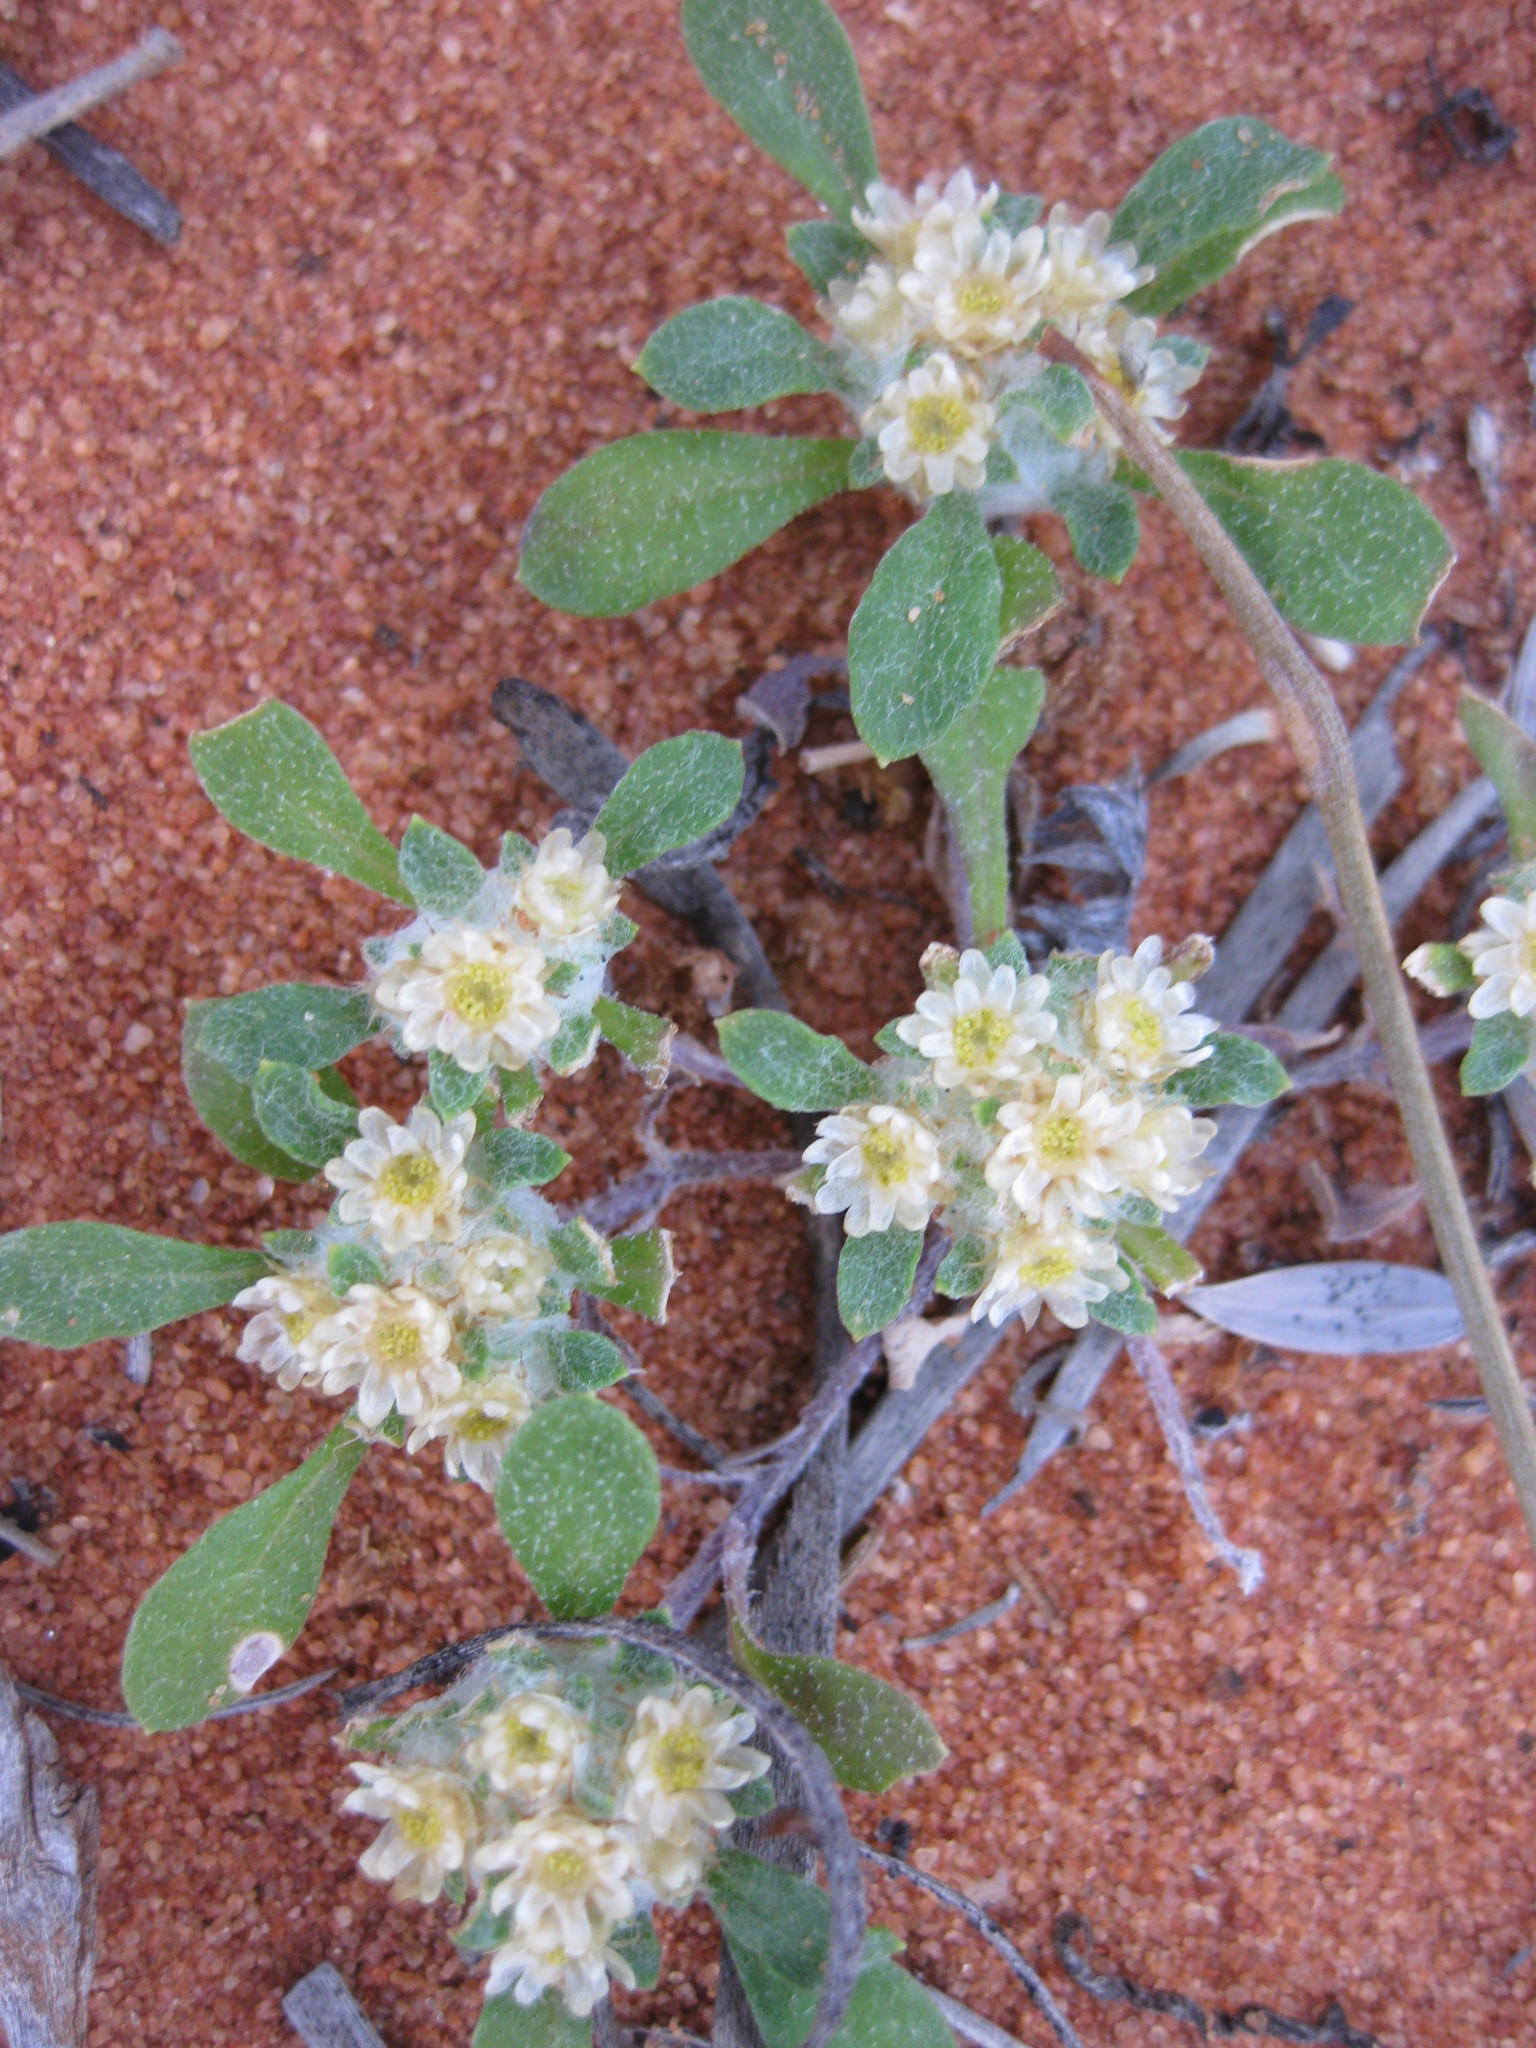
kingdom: Plantae
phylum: Tracheophyta
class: Magnoliopsida
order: Asterales
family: Asteraceae
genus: Actinobole
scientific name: Actinobole condensatum
